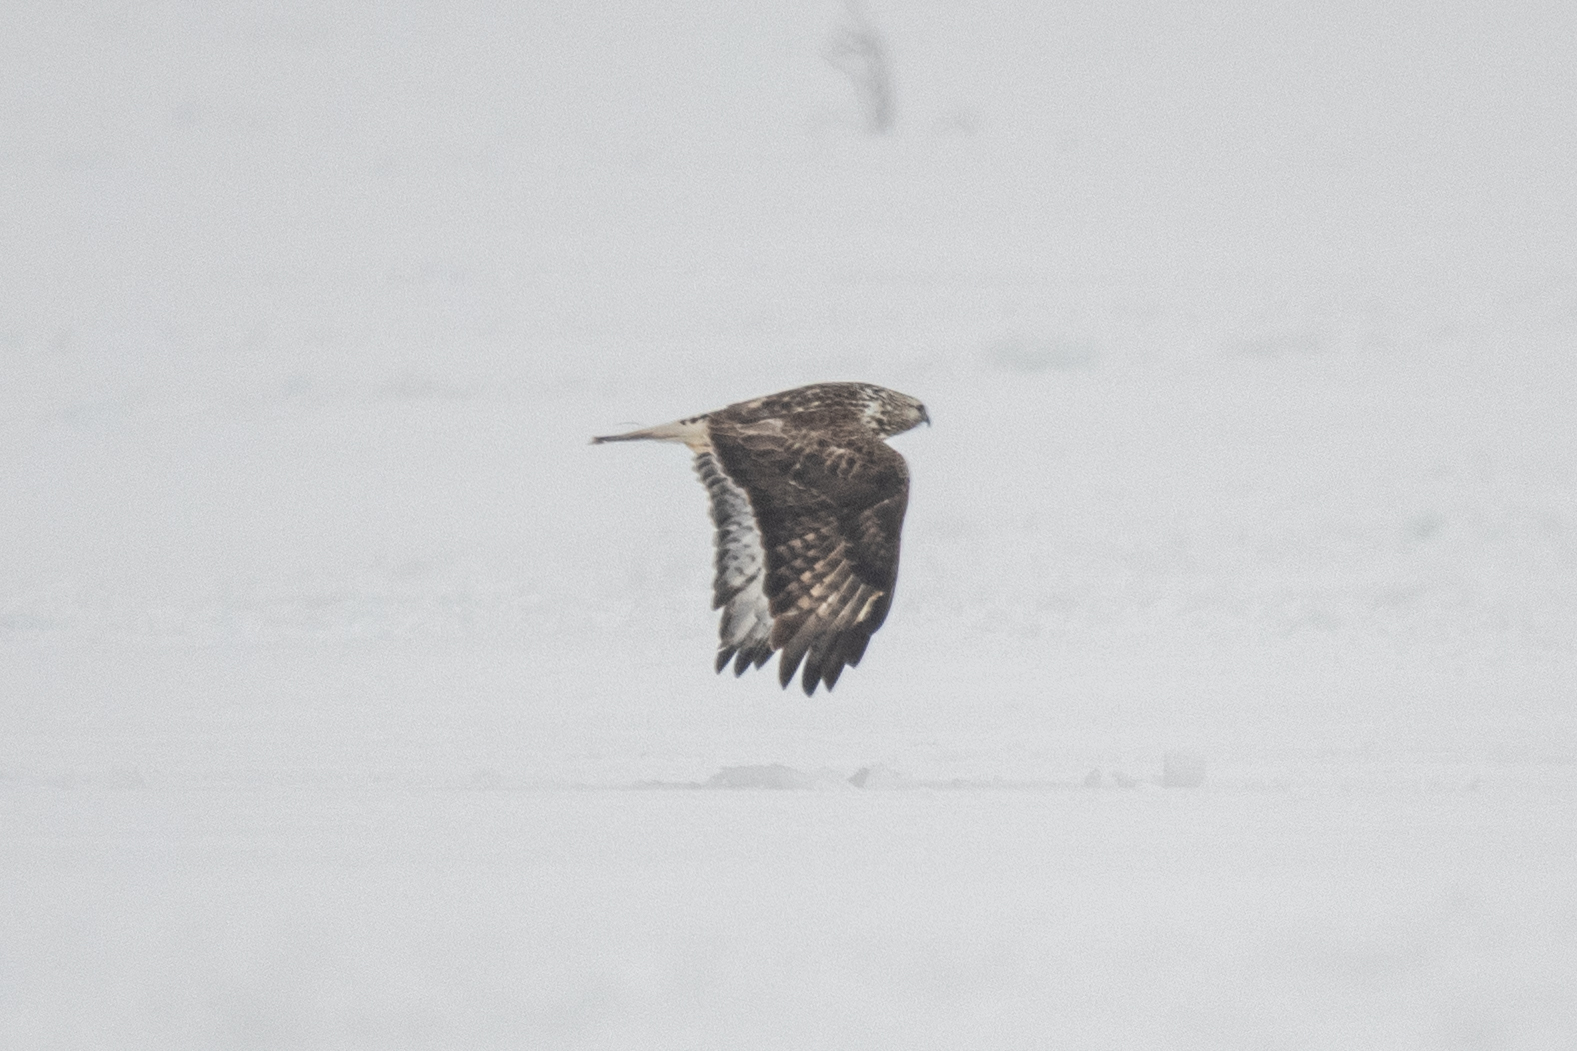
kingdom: Animalia
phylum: Chordata
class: Aves
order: Accipitriformes
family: Accipitridae
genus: Buteo
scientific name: Buteo lagopus
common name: Rough-legged buzzard
